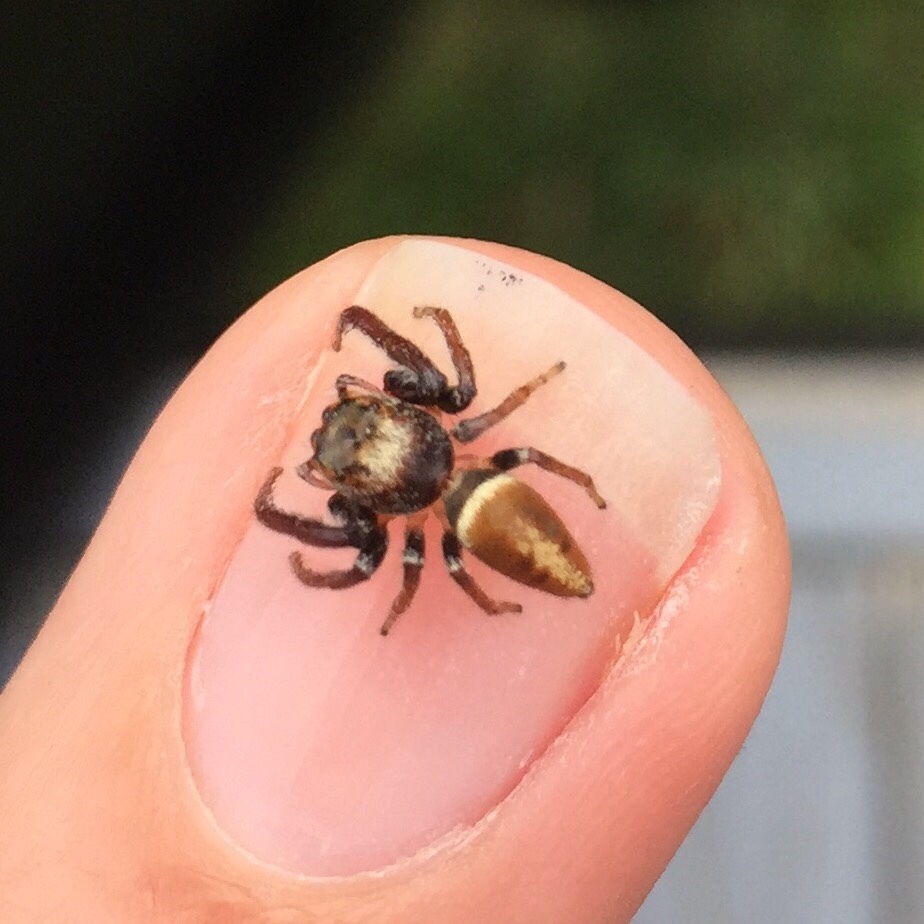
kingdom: Animalia
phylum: Arthropoda
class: Arachnida
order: Araneae
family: Salticidae
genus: Opisthoncus
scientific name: Opisthoncus polyphemus
